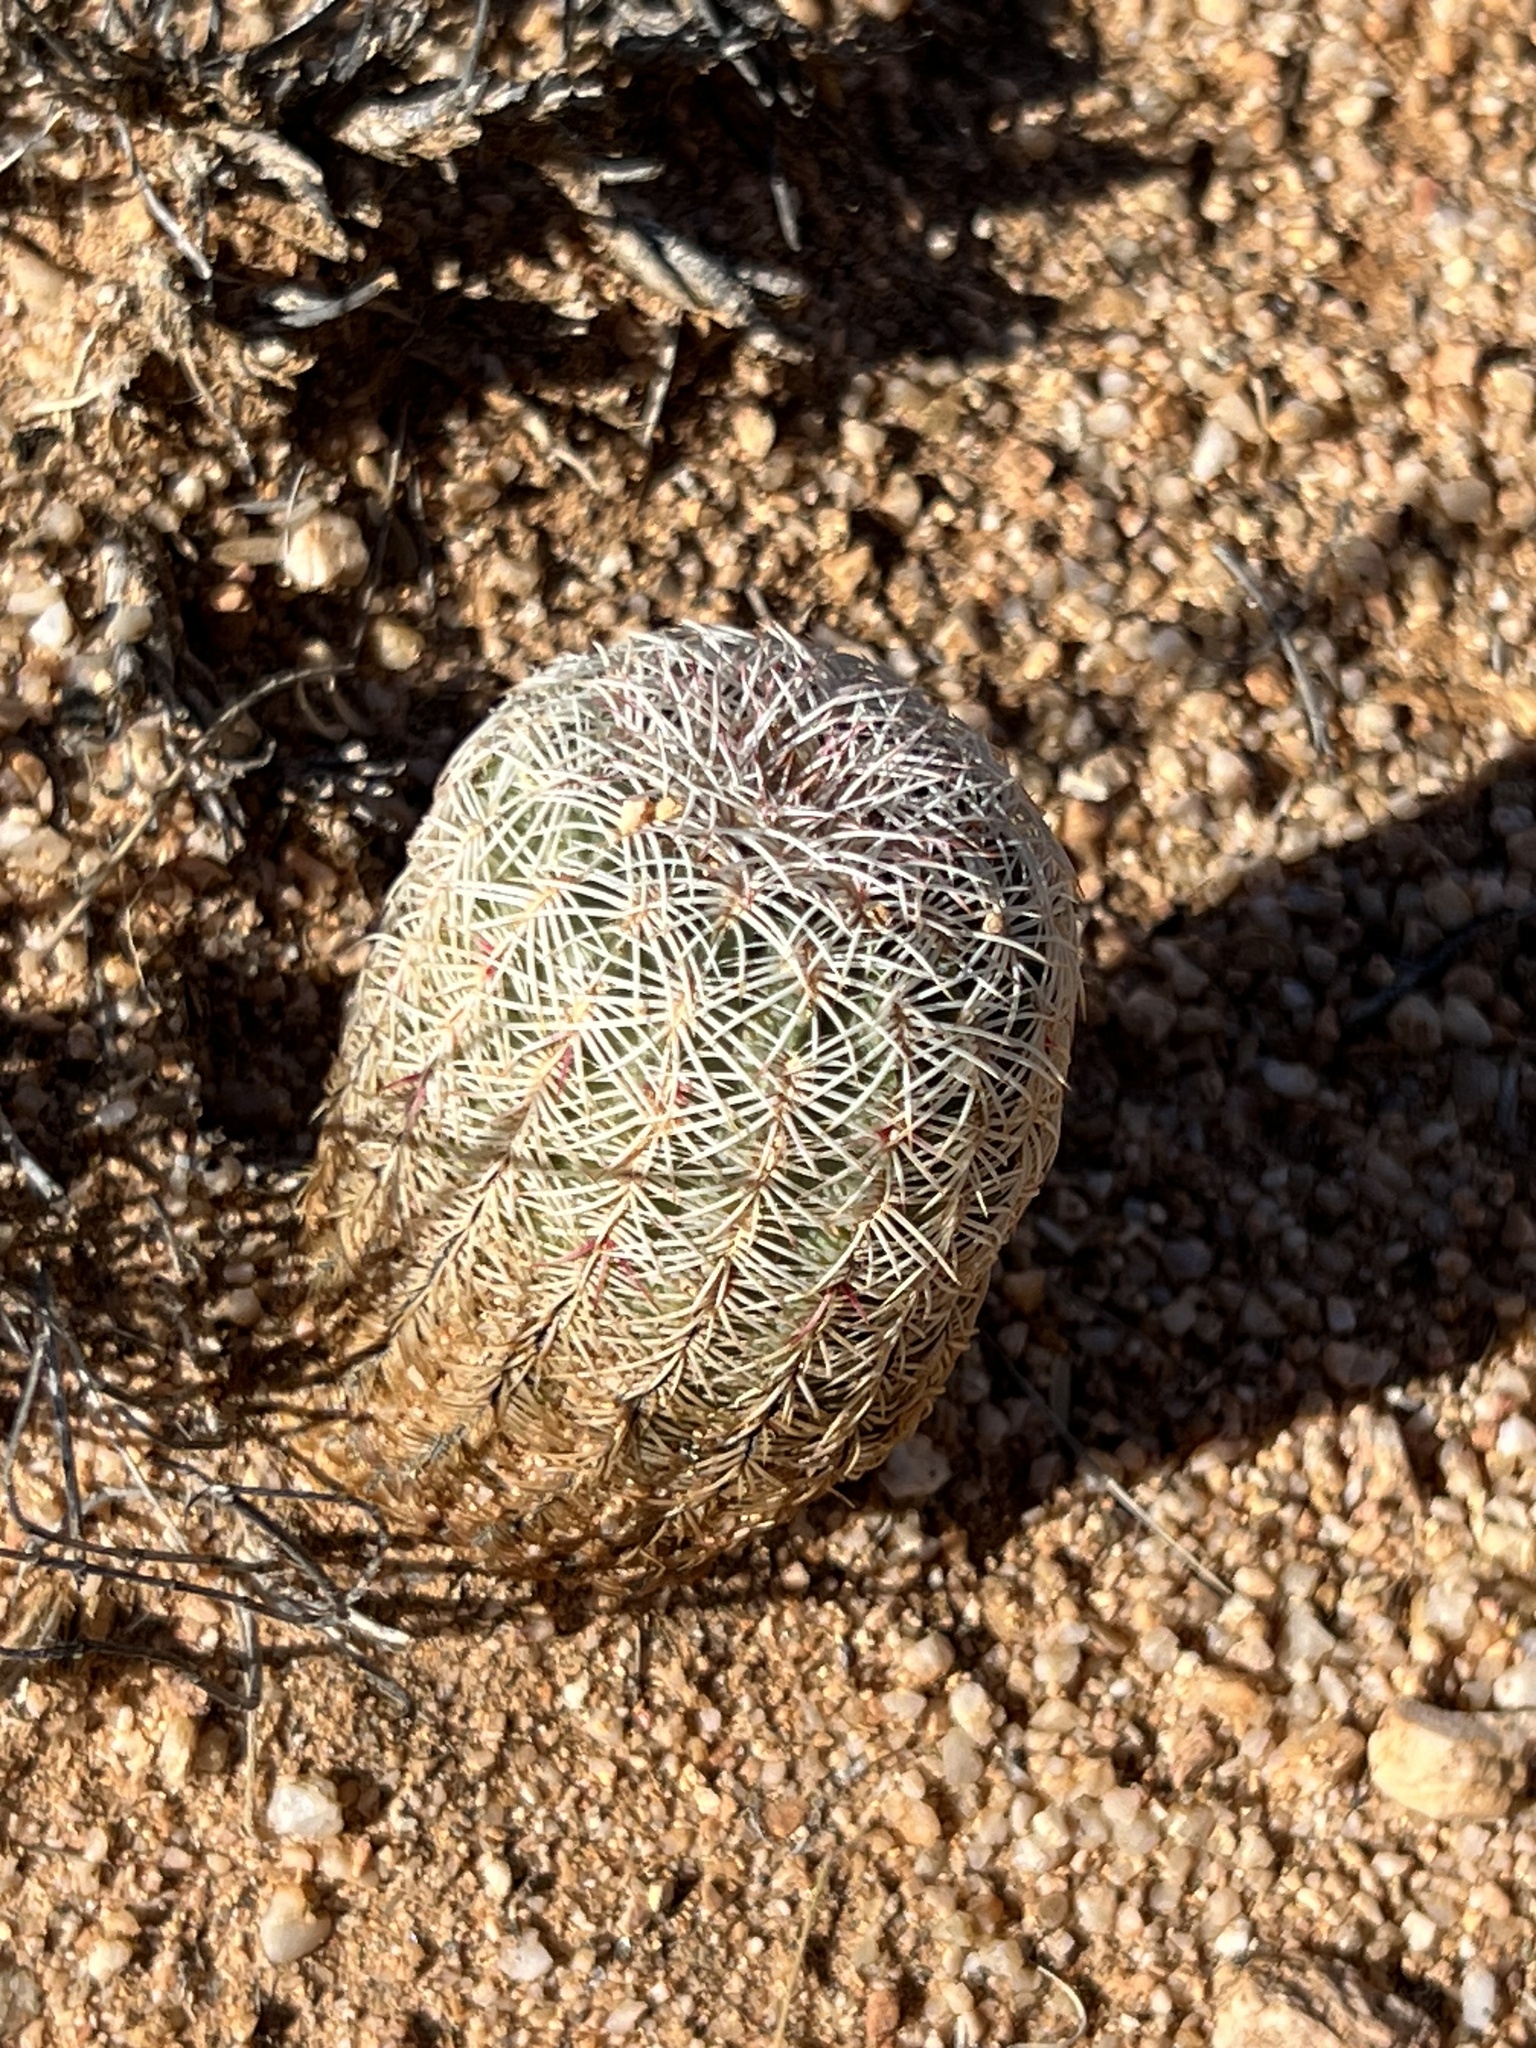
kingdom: Plantae
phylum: Tracheophyta
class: Magnoliopsida
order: Caryophyllales
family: Cactaceae
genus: Echinocereus
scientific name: Echinocereus rigidissimus
